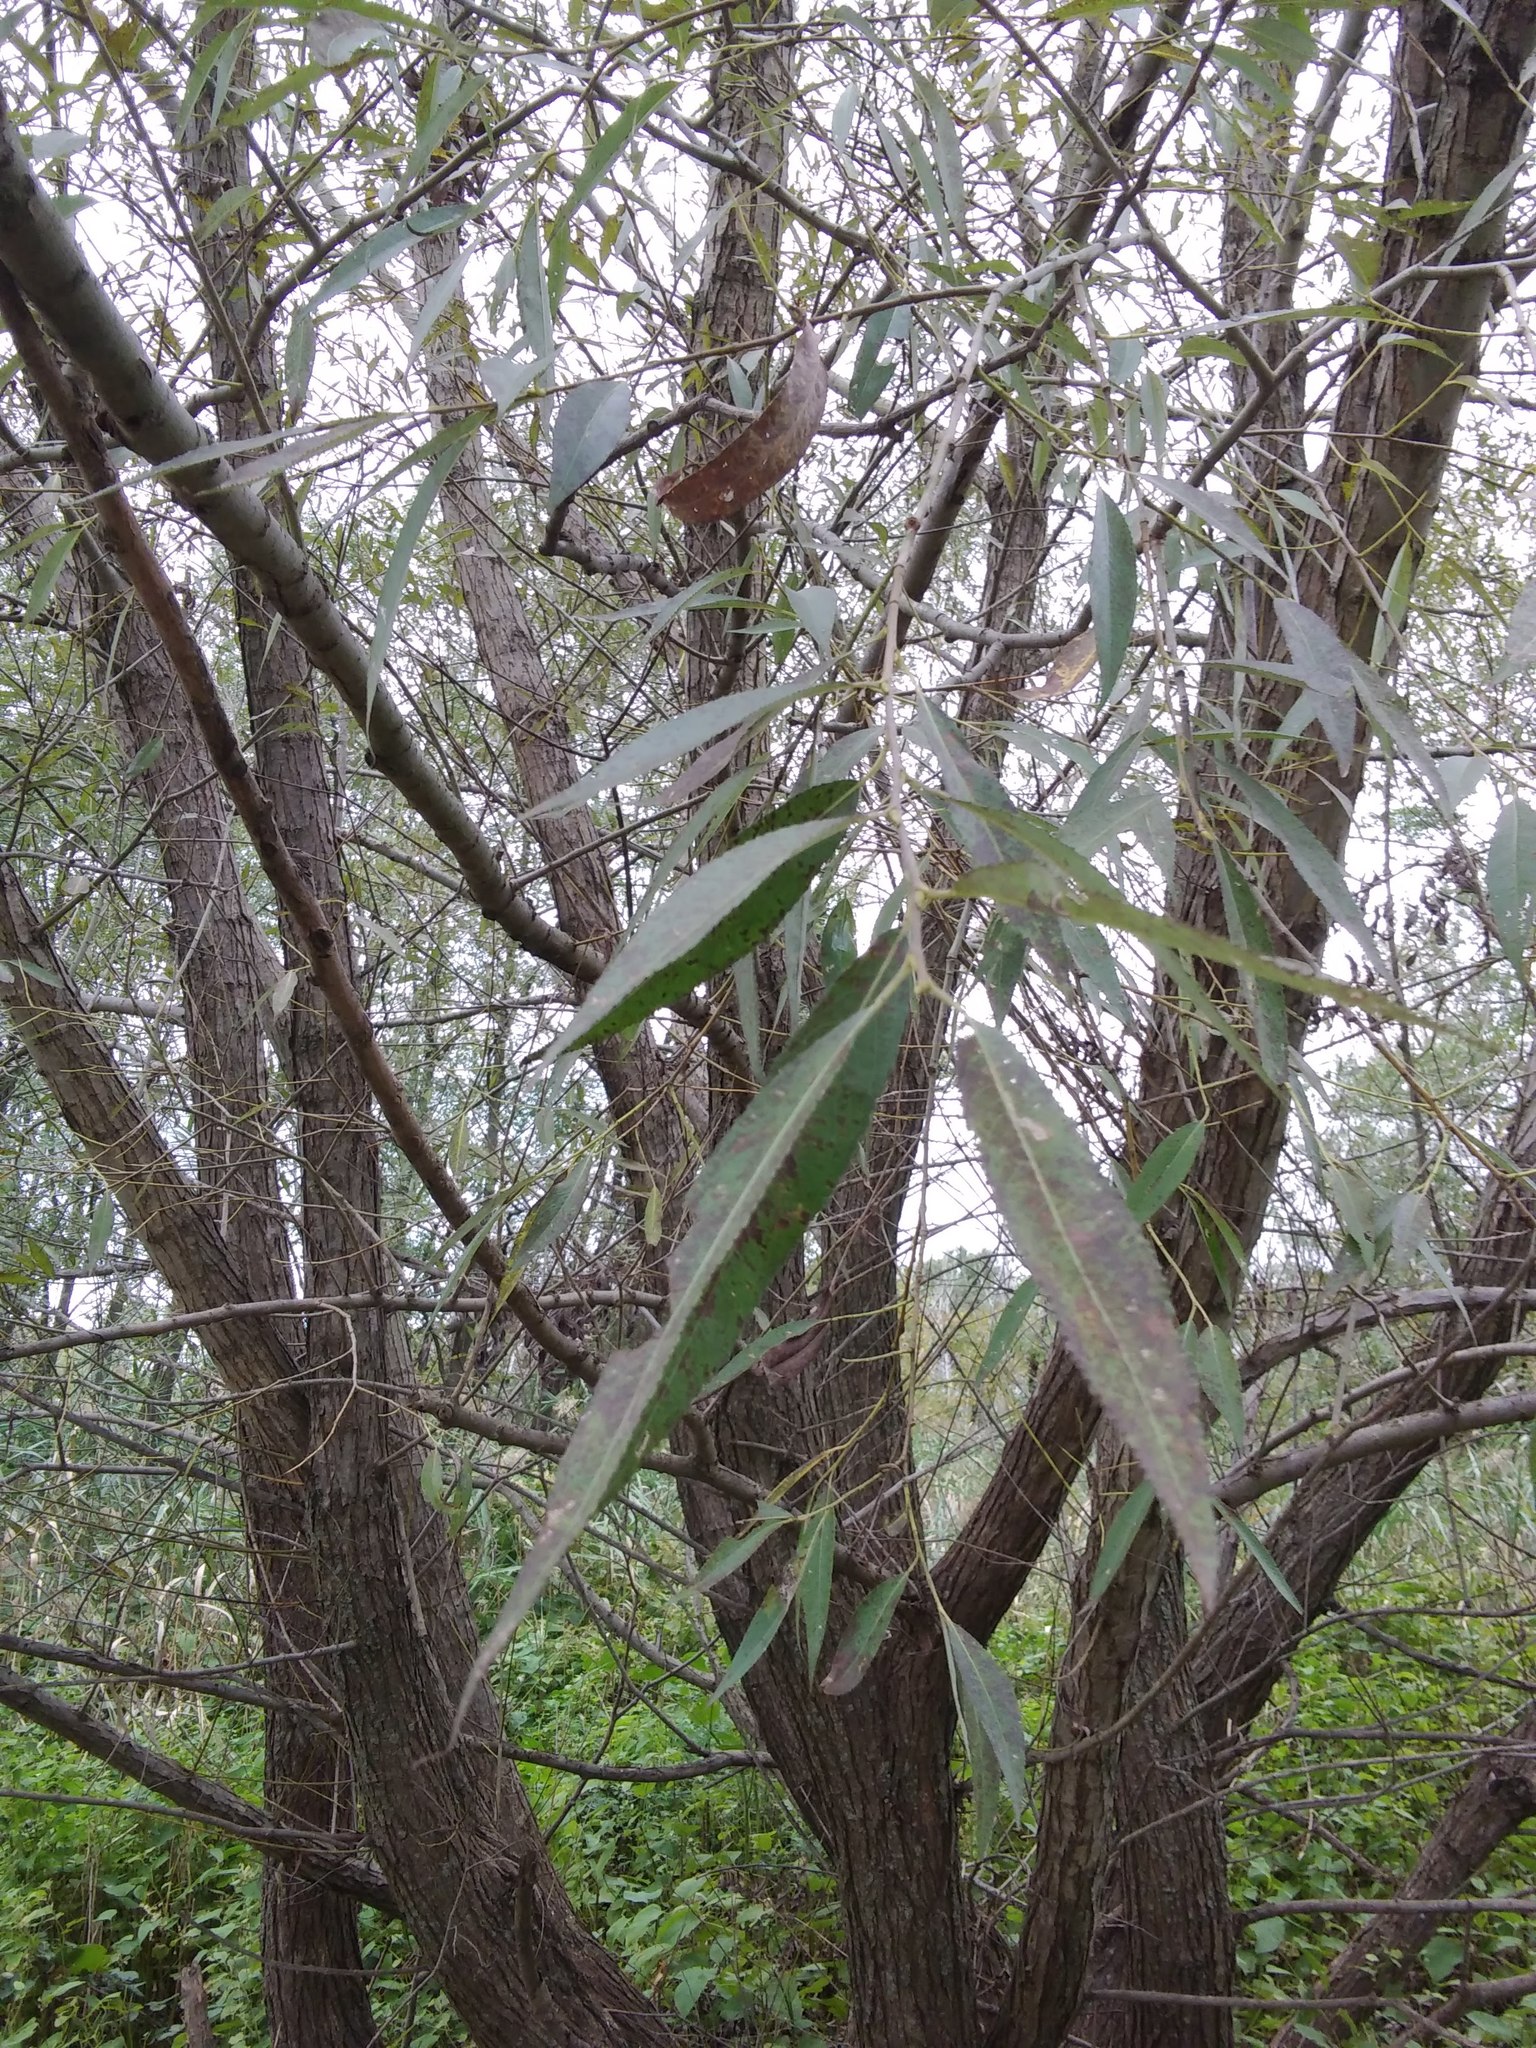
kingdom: Plantae
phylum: Tracheophyta
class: Magnoliopsida
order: Malpighiales
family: Salicaceae
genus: Salix
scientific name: Salix nigra
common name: Black willow
